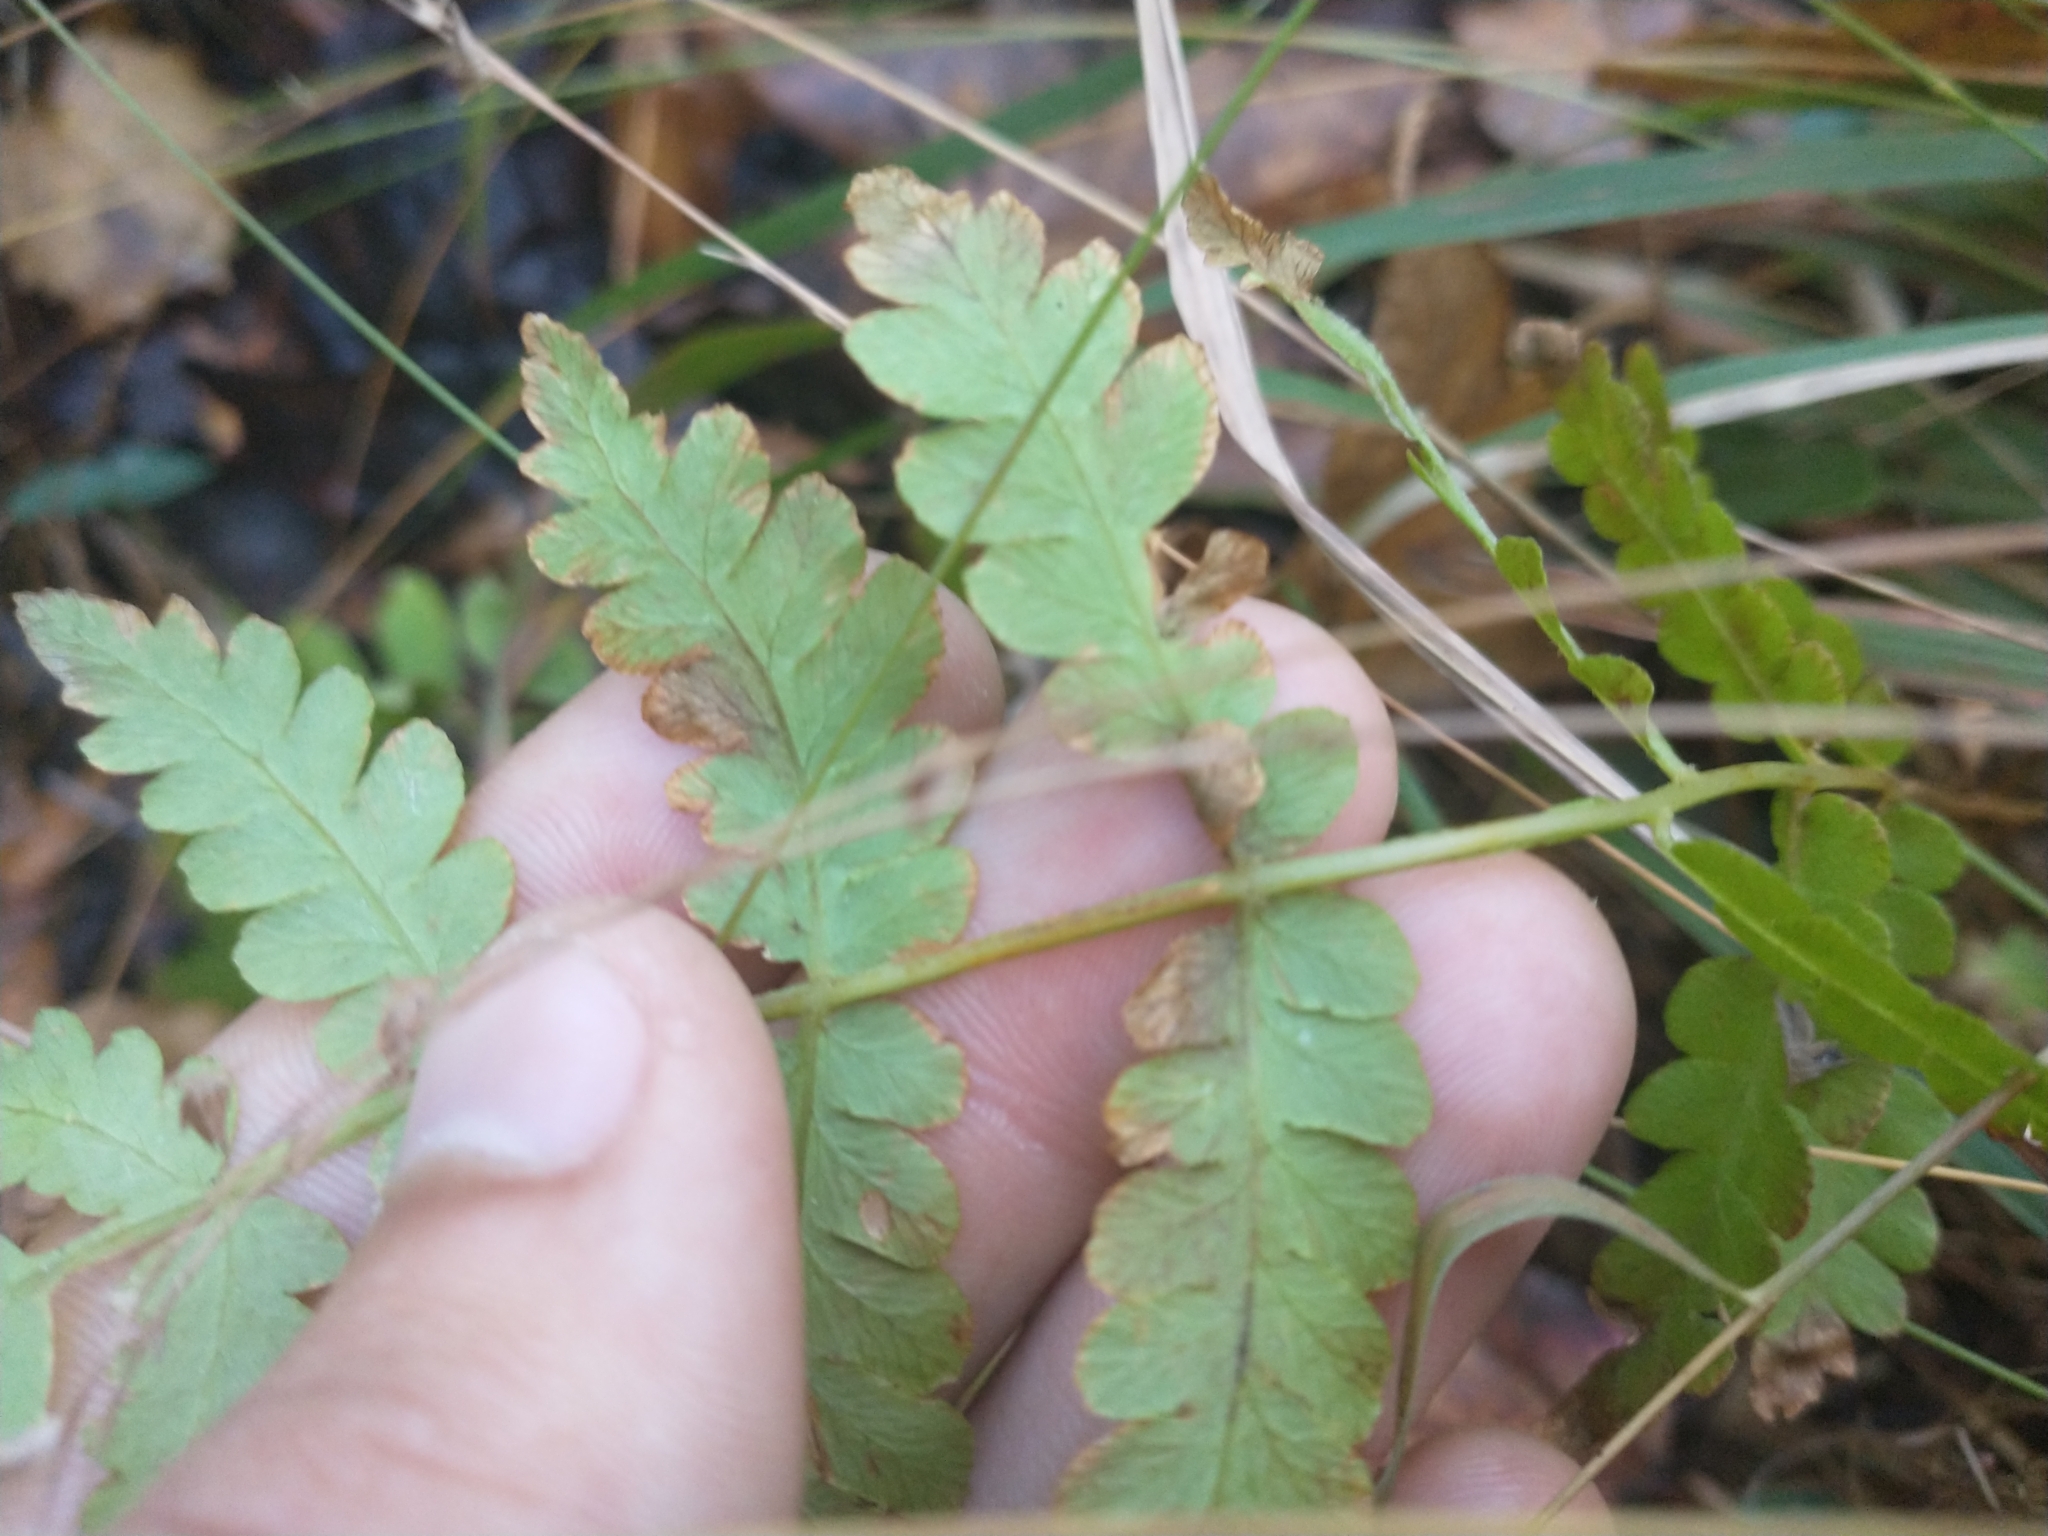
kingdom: Plantae
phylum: Tracheophyta
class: Polypodiopsida
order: Osmundales
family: Osmundaceae
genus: Osmundastrum
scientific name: Osmundastrum cinnamomeum
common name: Cinnamon fern
